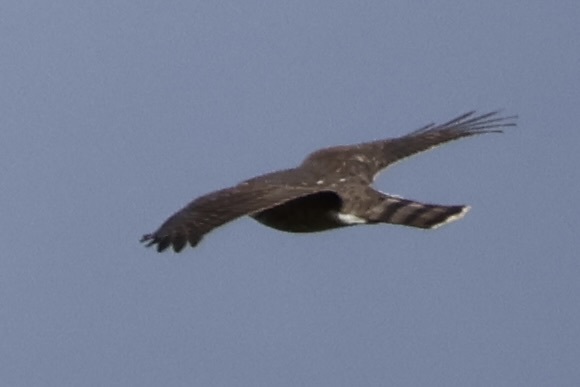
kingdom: Animalia
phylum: Chordata
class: Aves
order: Accipitriformes
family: Accipitridae
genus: Accipiter
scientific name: Accipiter striatus
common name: Sharp-shinned hawk
